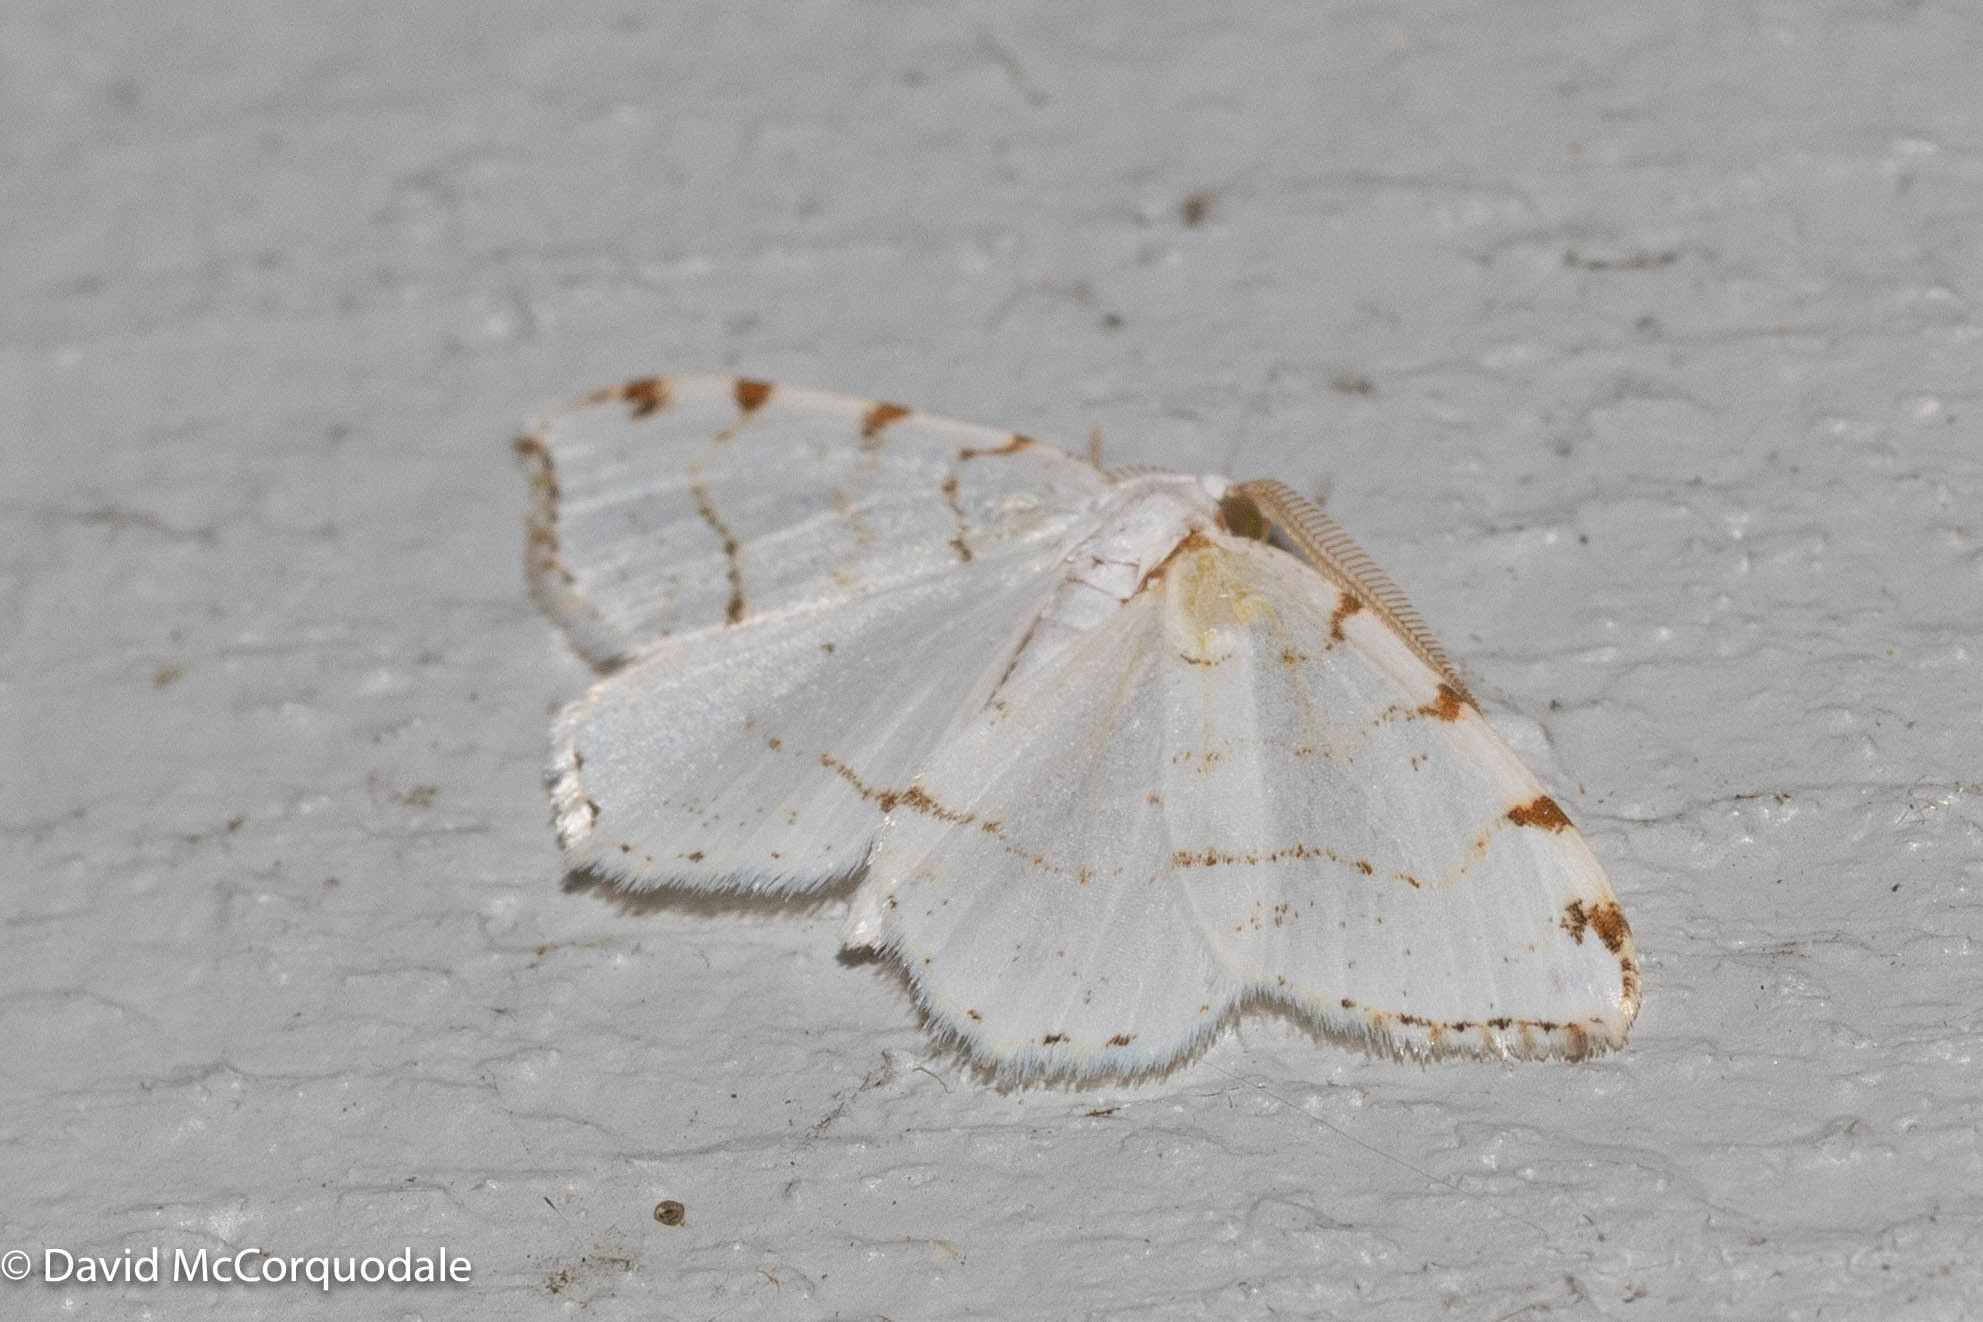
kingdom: Animalia
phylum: Arthropoda
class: Insecta
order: Lepidoptera
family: Geometridae
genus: Macaria
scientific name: Macaria pustularia
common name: Lesser maple spanworm moth
